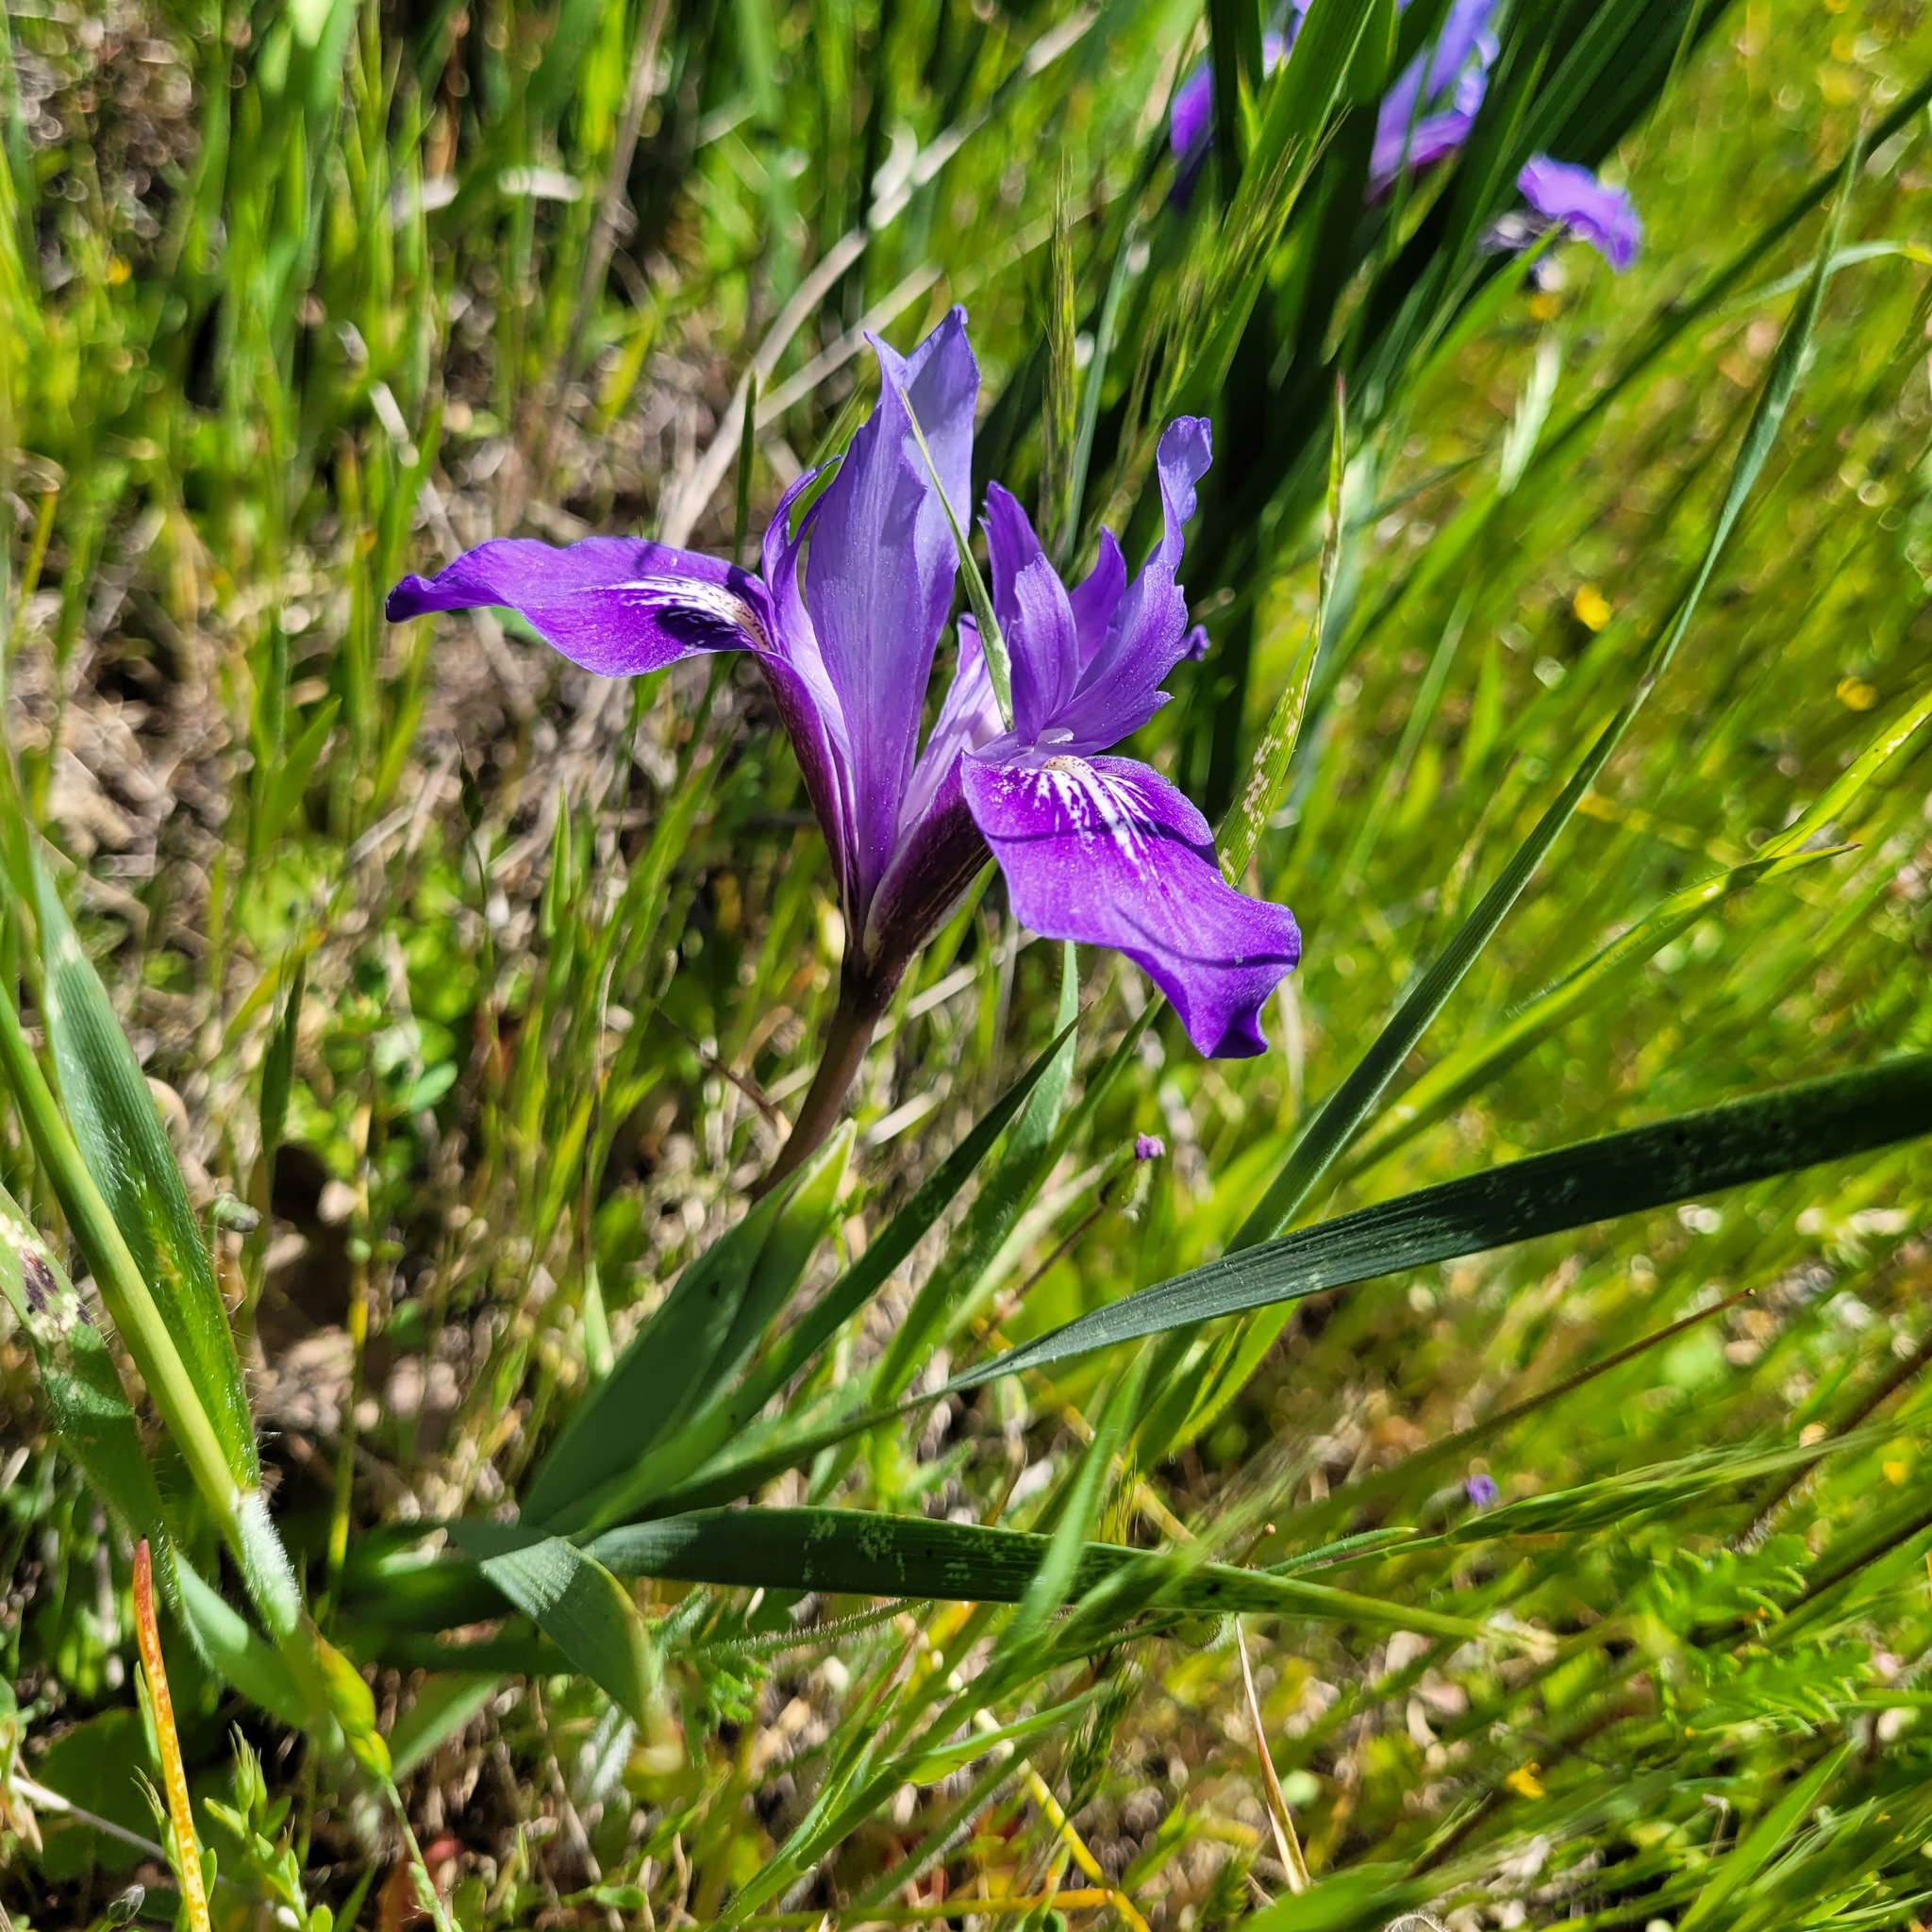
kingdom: Plantae
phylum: Tracheophyta
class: Liliopsida
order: Asparagales
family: Iridaceae
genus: Iris
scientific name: Iris macrosiphon
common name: Ground iris
